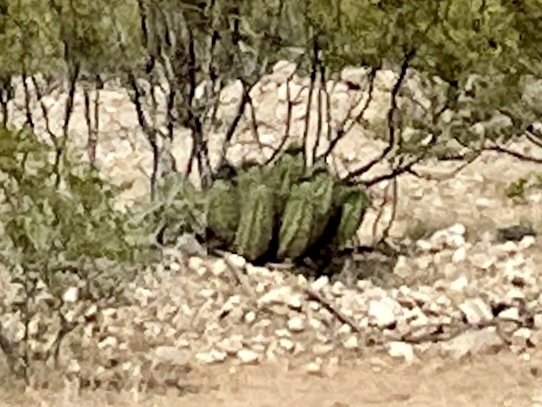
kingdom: Plantae
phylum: Tracheophyta
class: Magnoliopsida
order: Caryophyllales
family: Cactaceae
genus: Echinocereus
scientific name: Echinocereus coccineus
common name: Scarlet hedgehog cactus
